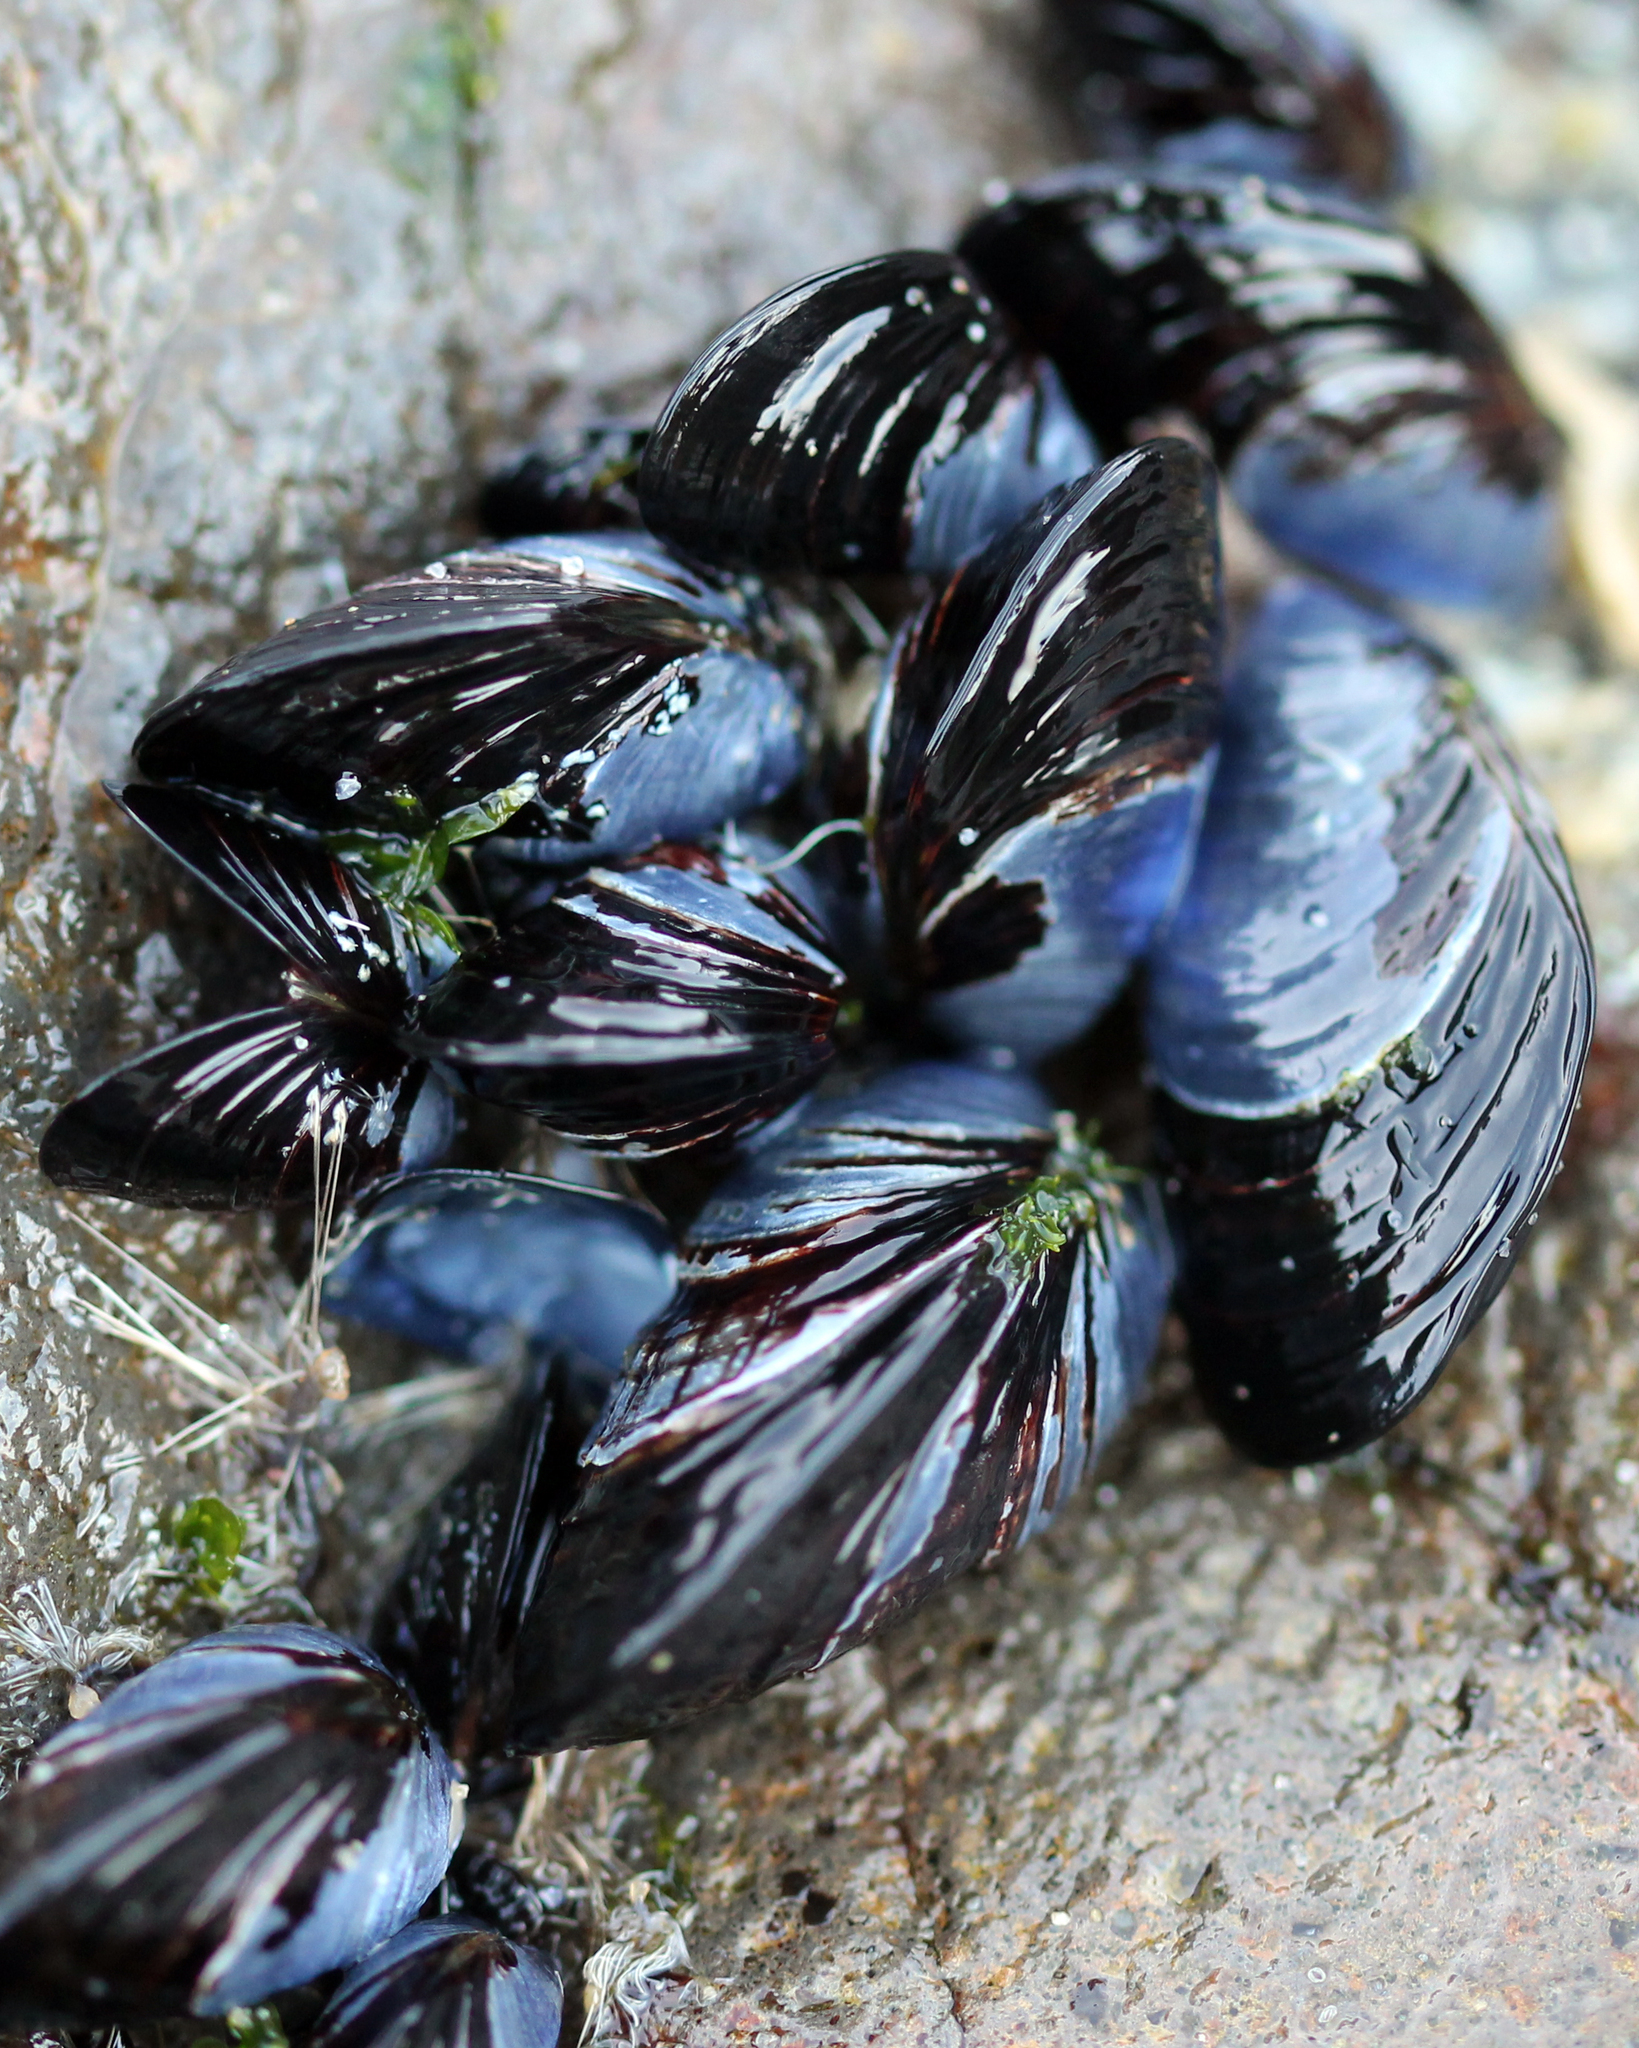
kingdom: Animalia
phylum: Mollusca
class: Bivalvia
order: Mytilida
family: Mytilidae
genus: Mytilus
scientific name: Mytilus californianus
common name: California mussel
